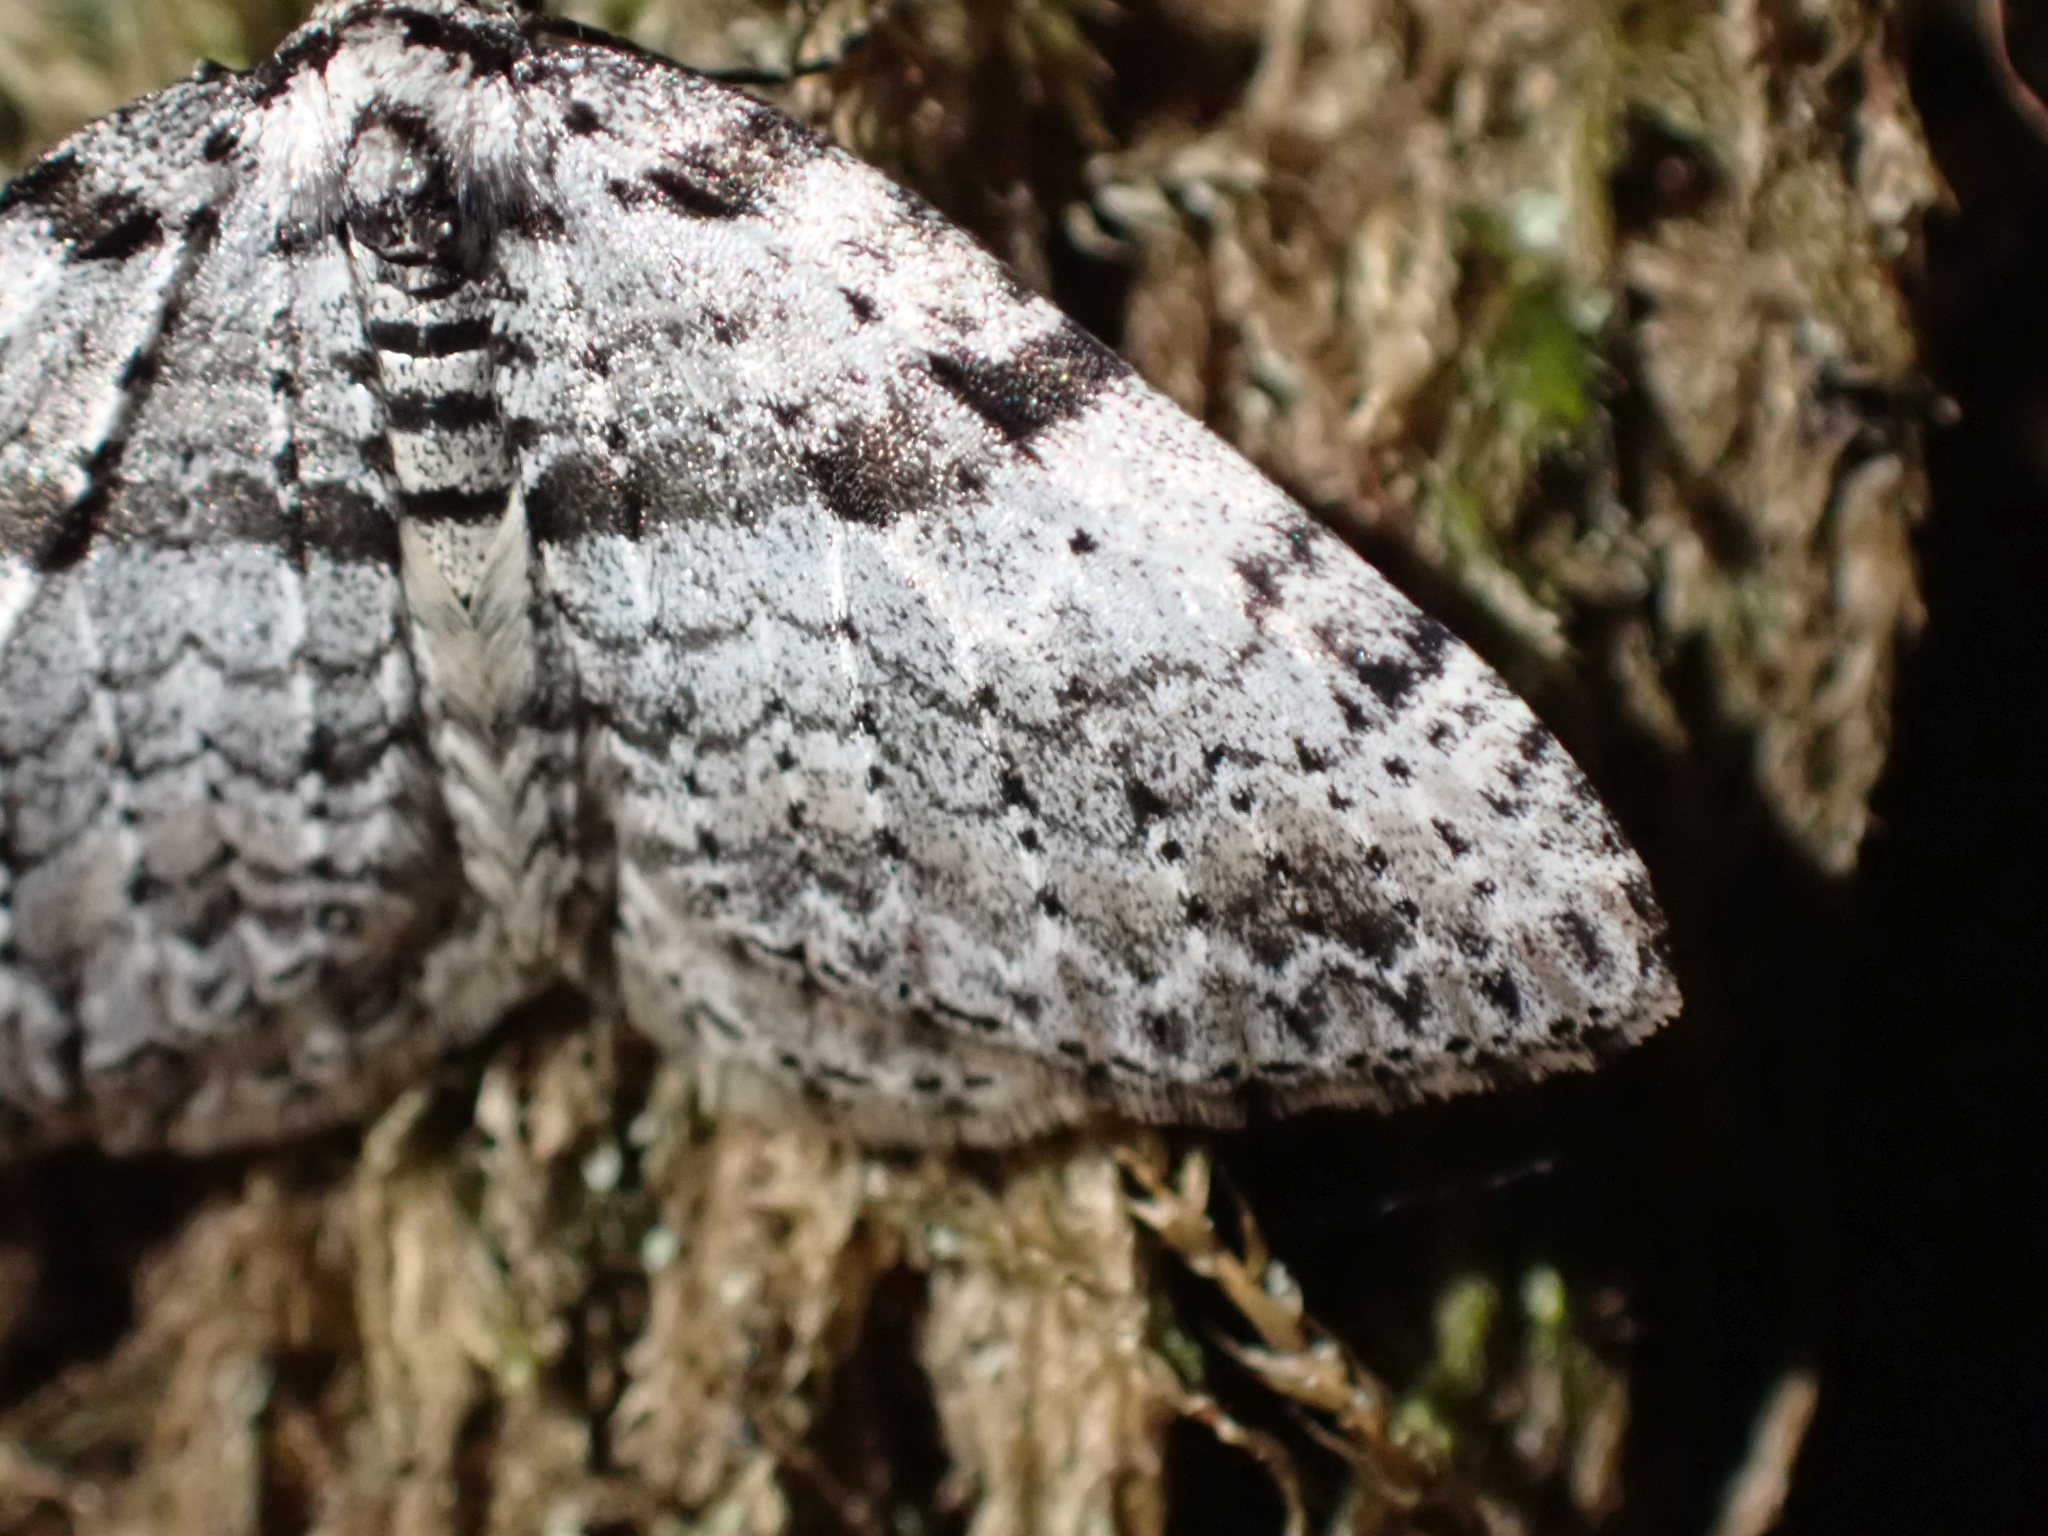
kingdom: Animalia
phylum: Arthropoda
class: Insecta
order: Lepidoptera
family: Geometridae
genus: Perizoma
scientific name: Perizoma curvilinea
